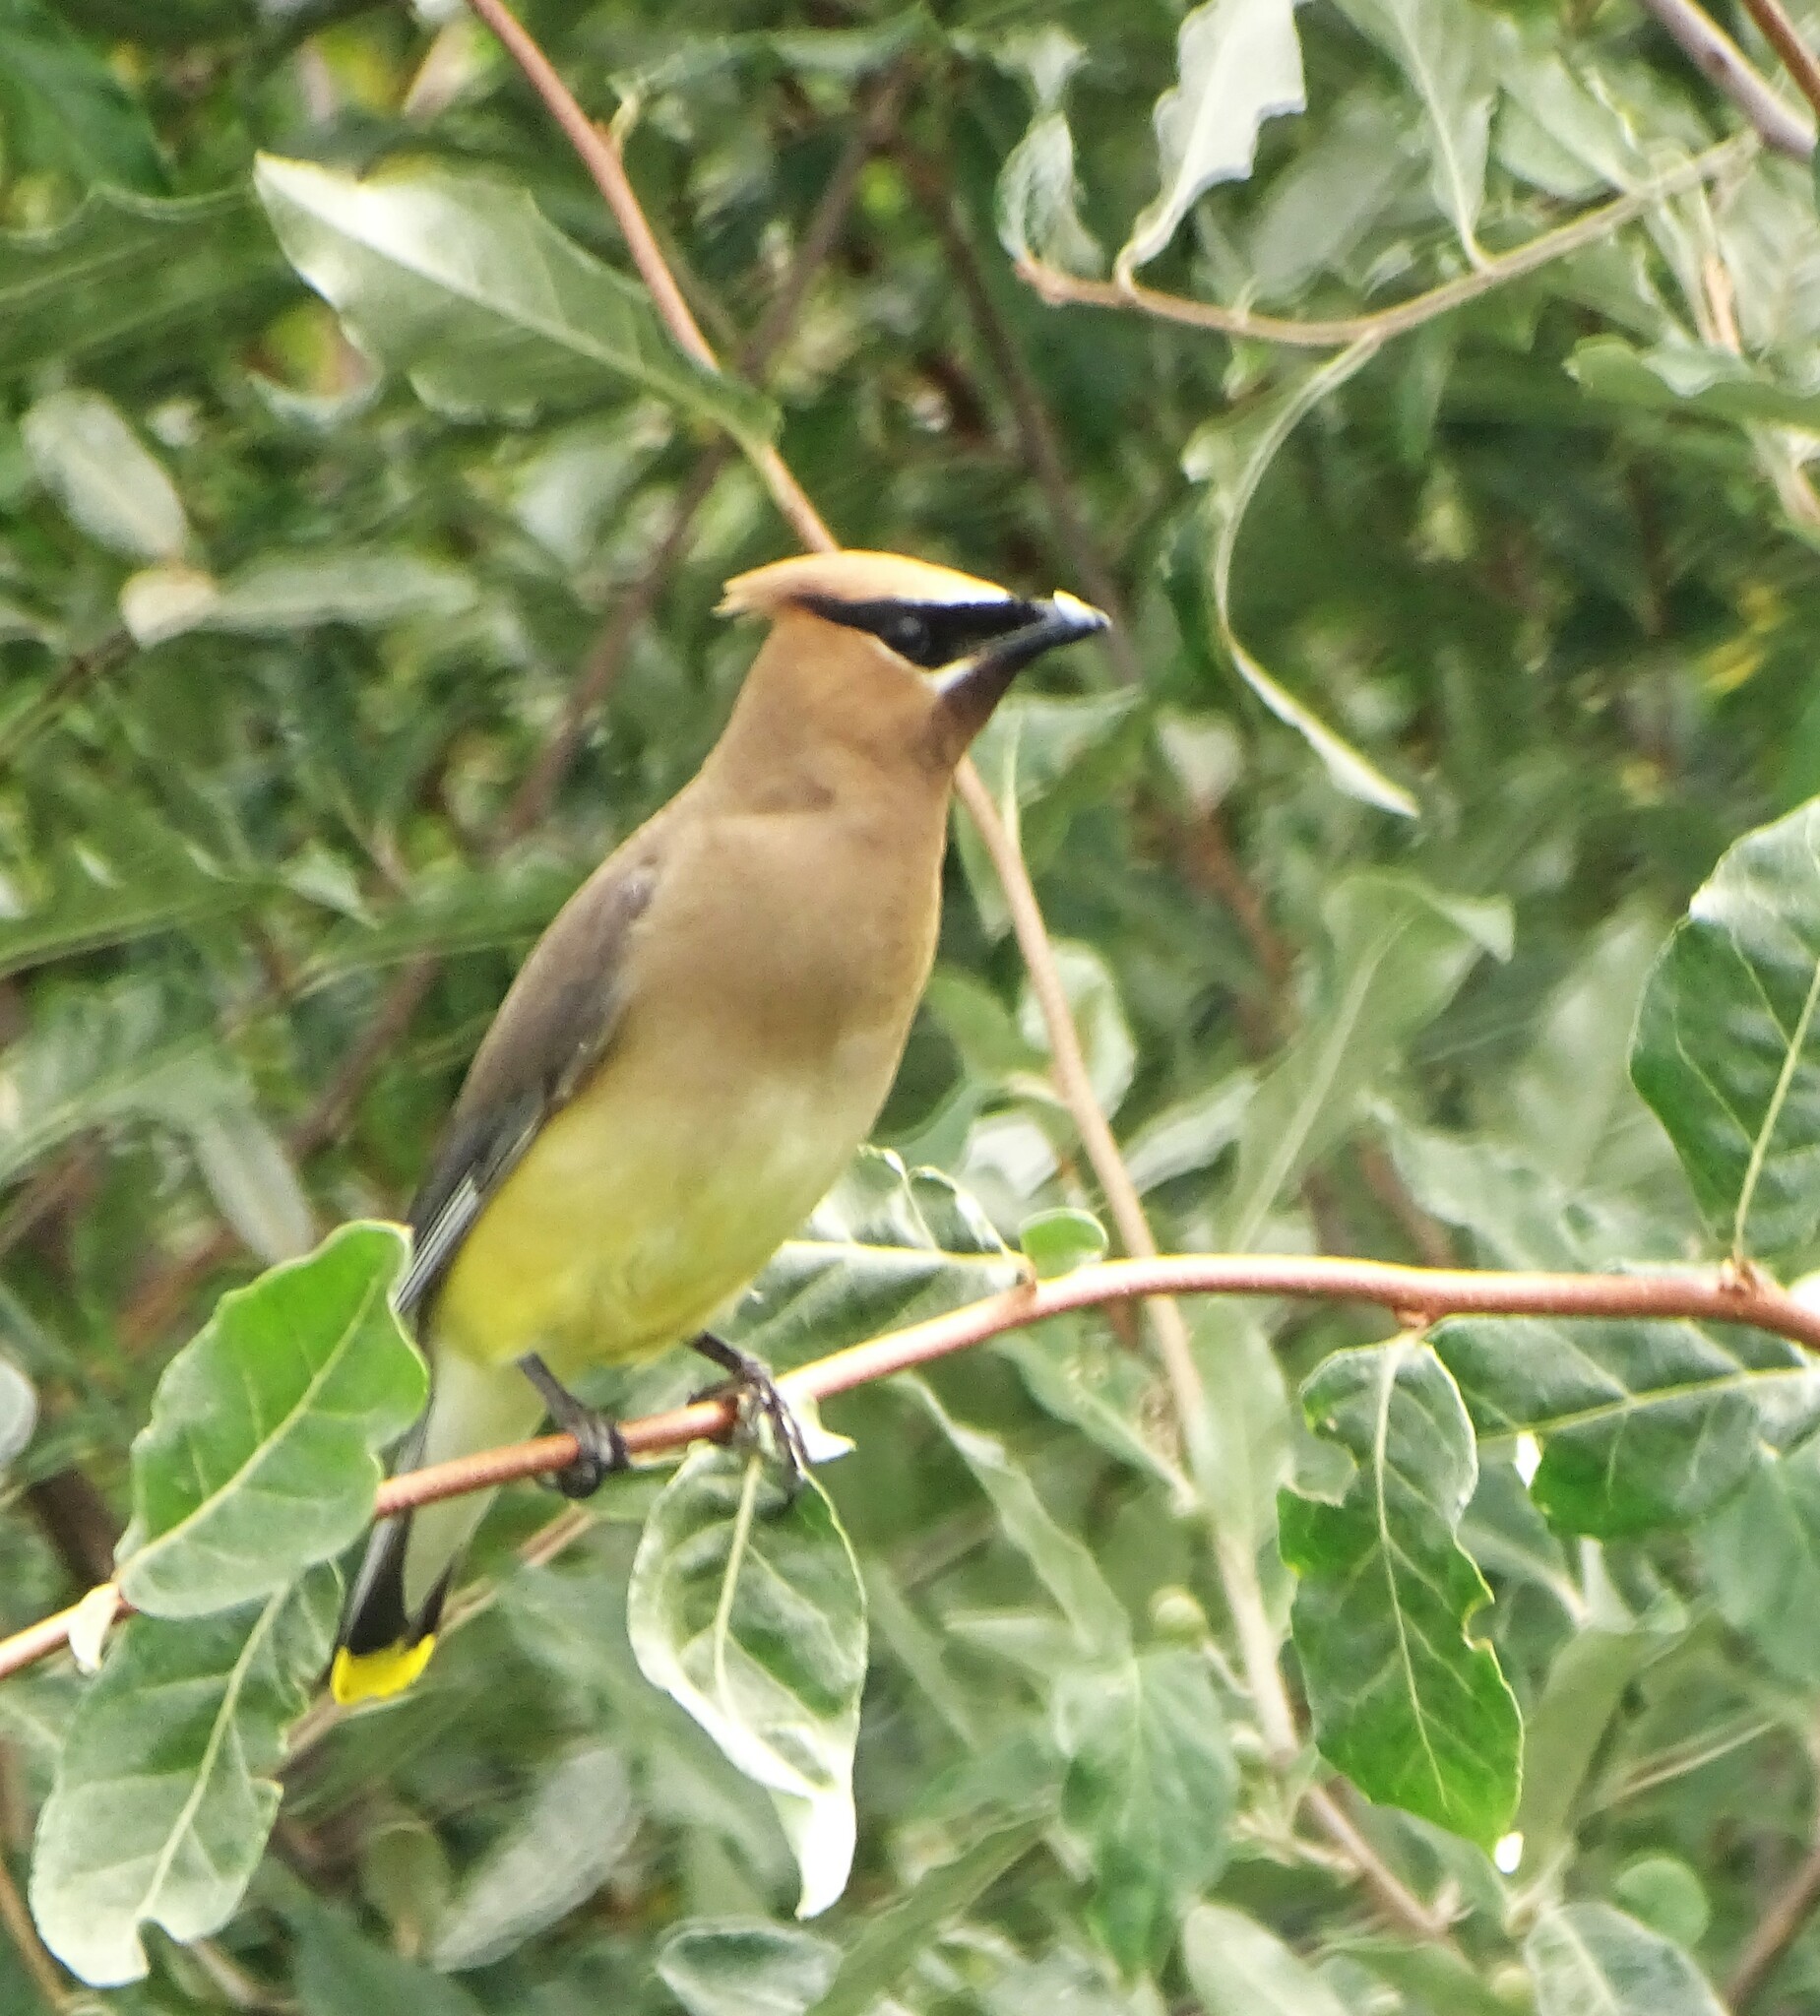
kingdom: Animalia
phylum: Chordata
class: Aves
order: Passeriformes
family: Bombycillidae
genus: Bombycilla
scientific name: Bombycilla cedrorum
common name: Cedar waxwing
